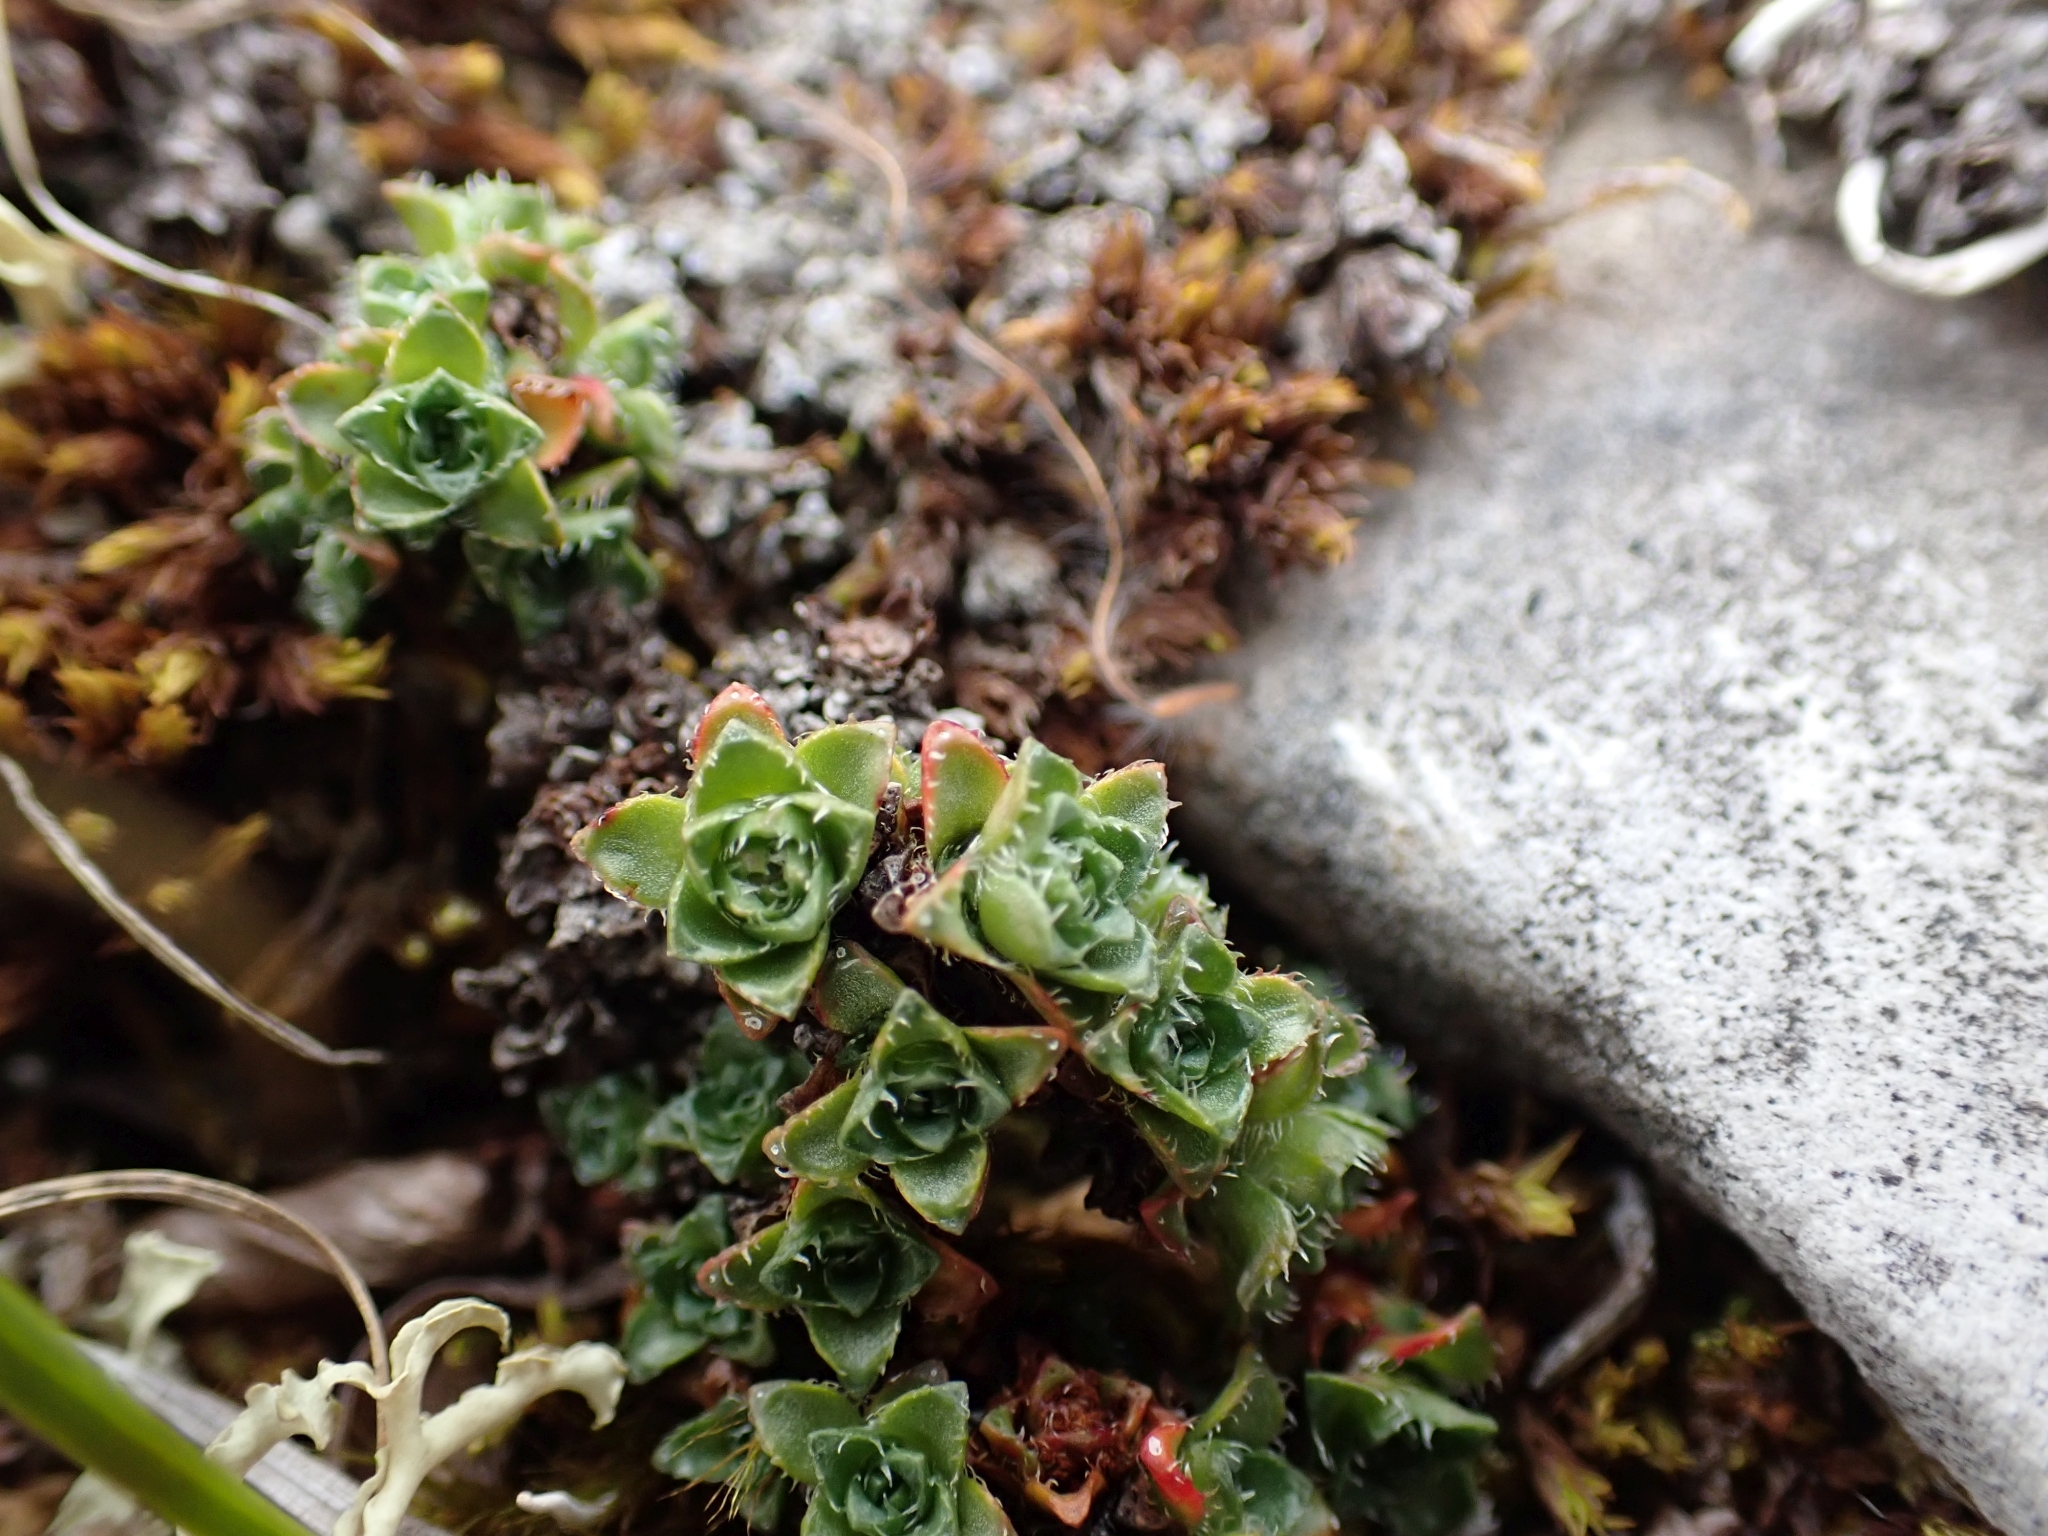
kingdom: Plantae
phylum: Tracheophyta
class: Magnoliopsida
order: Saxifragales
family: Saxifragaceae
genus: Saxifraga
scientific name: Saxifraga oppositifolia
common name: Purple saxifrage
